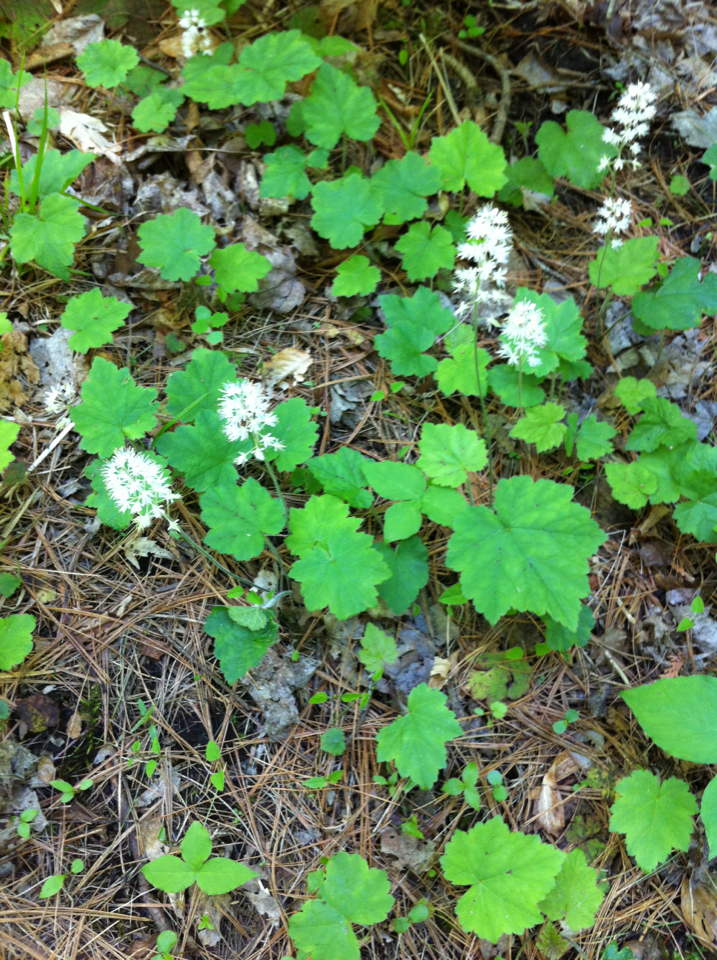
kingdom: Plantae
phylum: Tracheophyta
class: Magnoliopsida
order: Saxifragales
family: Saxifragaceae
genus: Tiarella
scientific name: Tiarella stolonifera
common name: Stoloniferous foamflower
